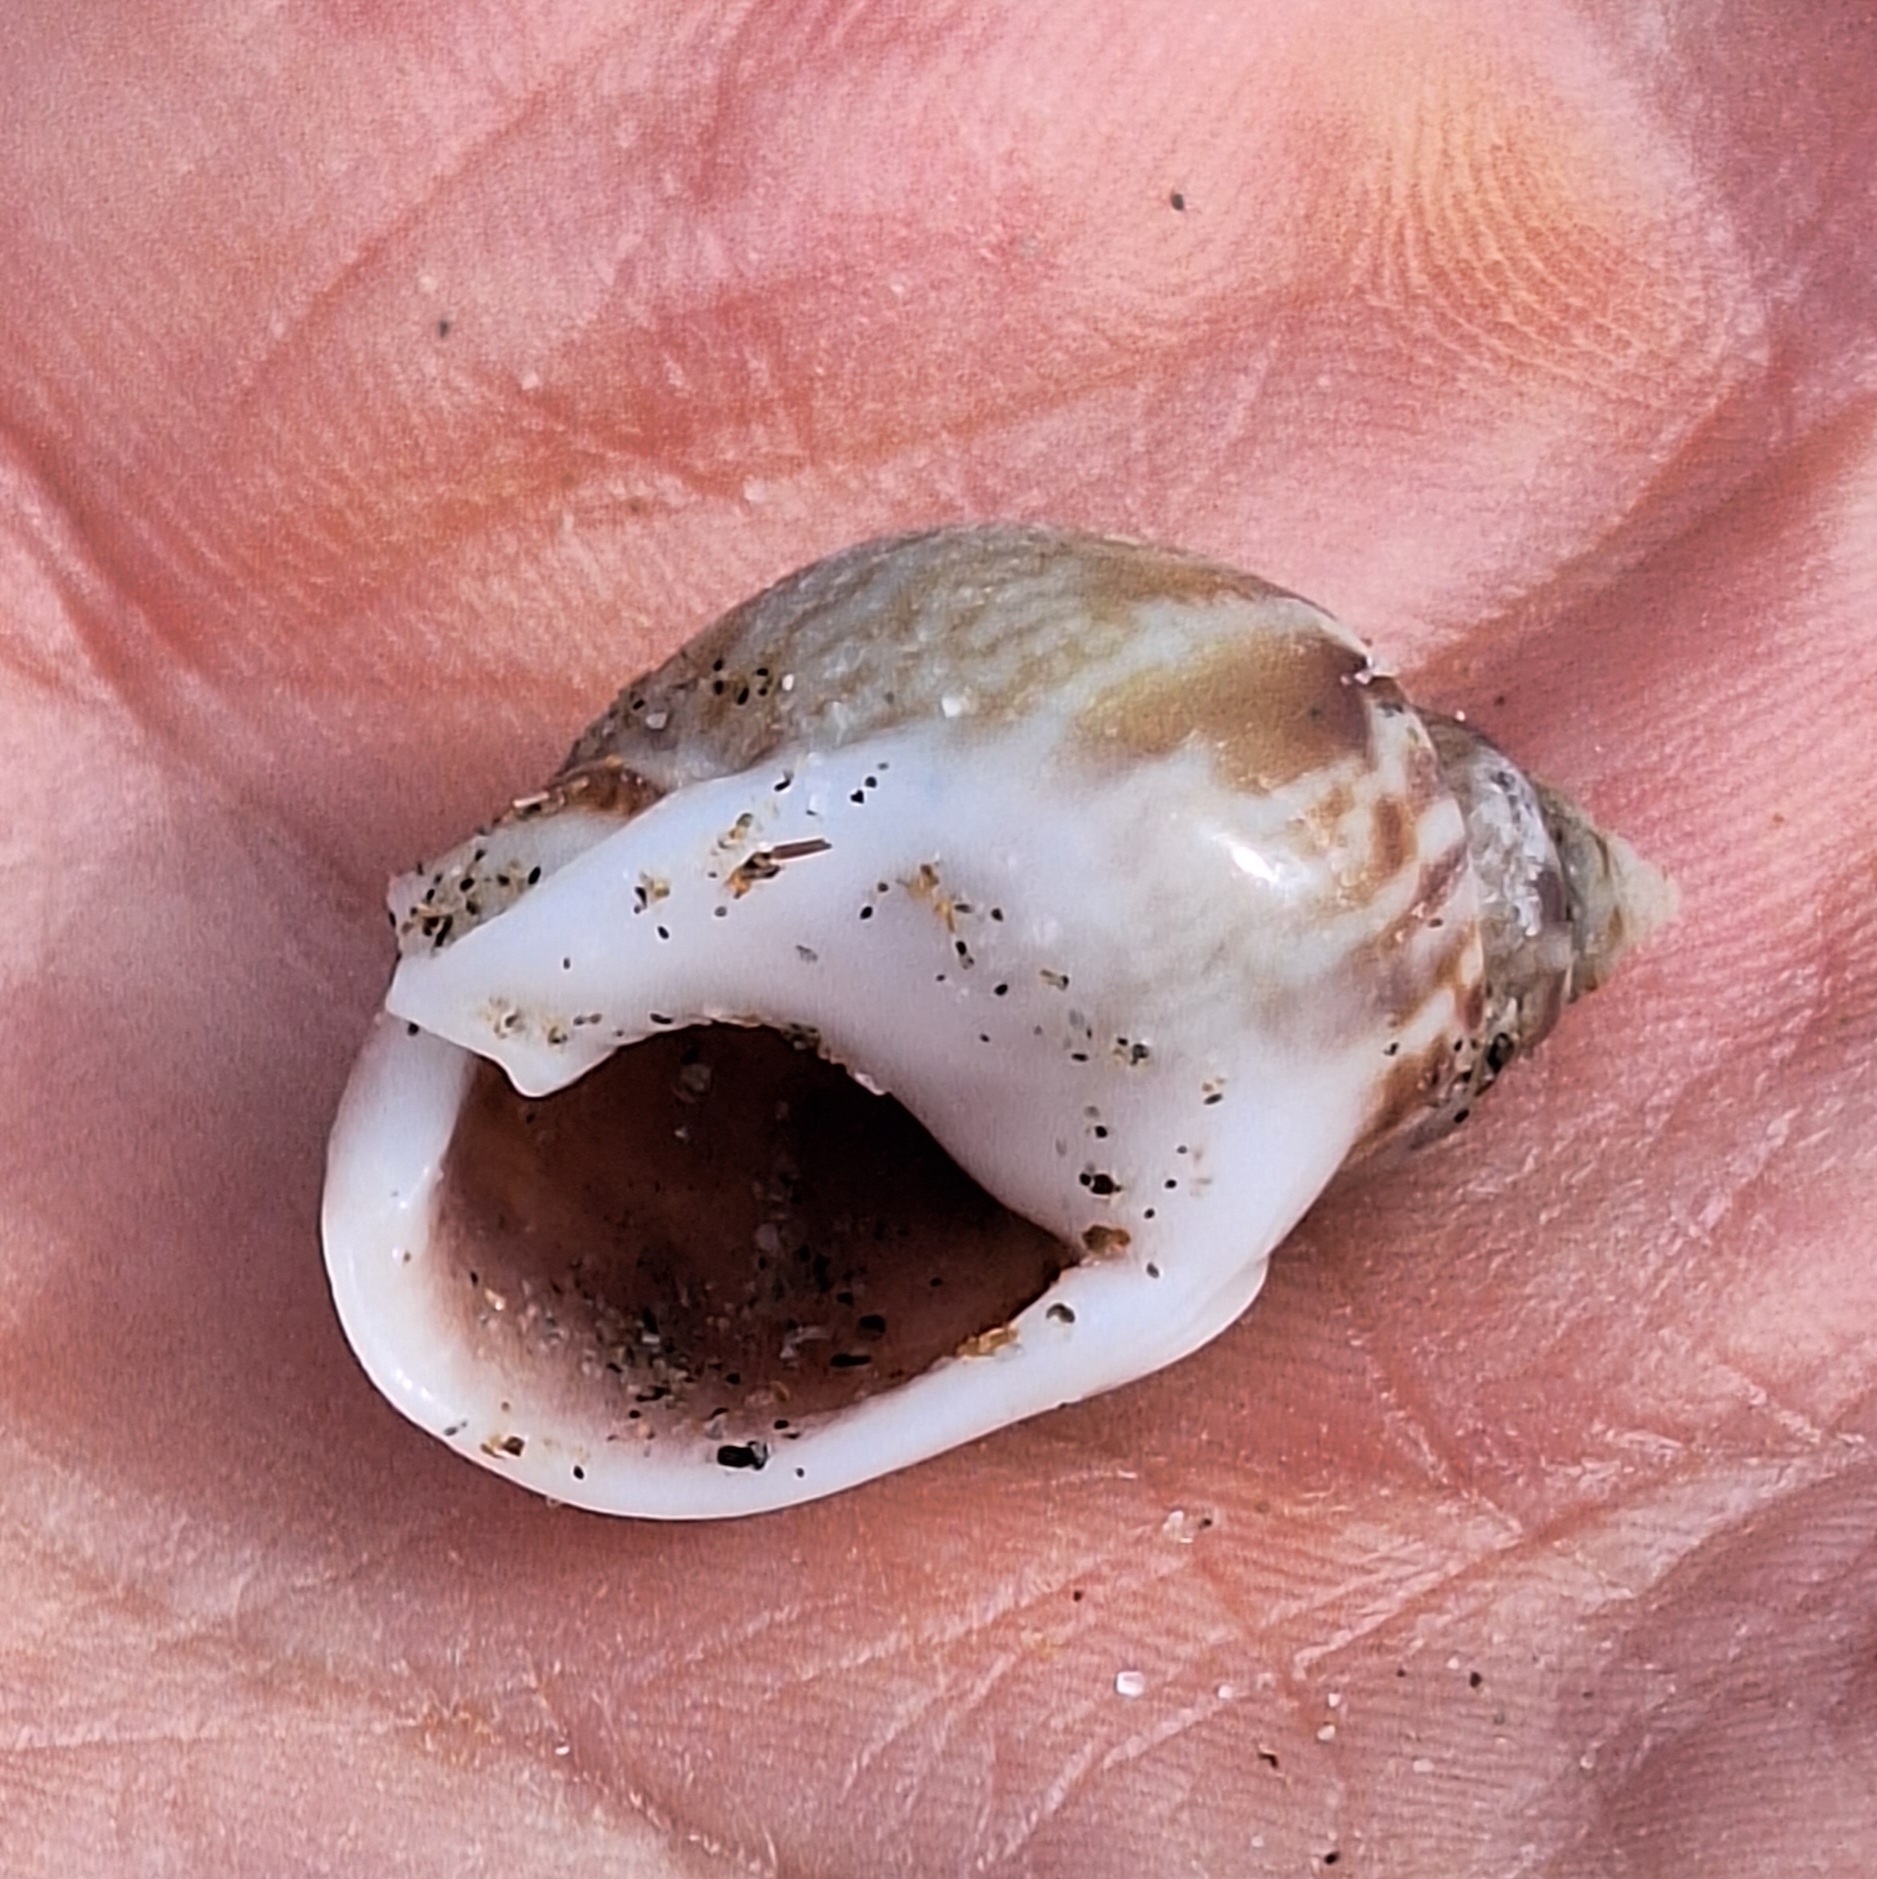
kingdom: Animalia
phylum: Mollusca
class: Gastropoda
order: Neogastropoda
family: Nassariidae
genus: Tritia
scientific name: Tritia mutabilis
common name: Mutable nassa
